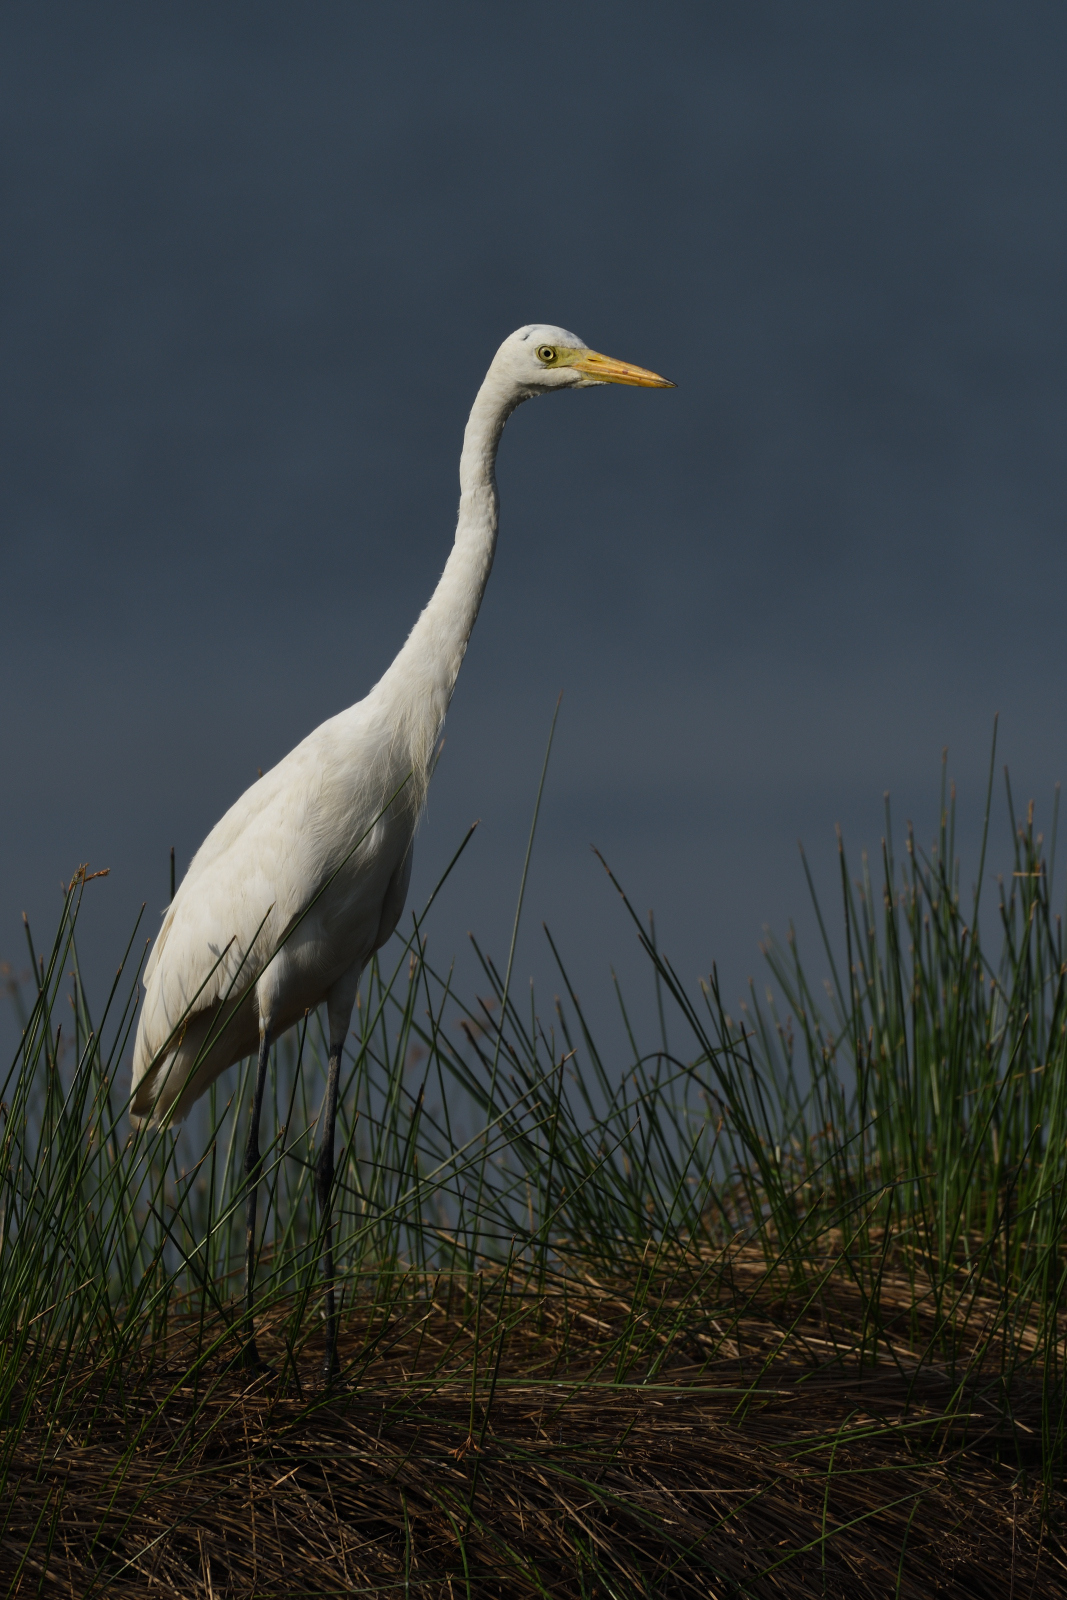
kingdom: Animalia
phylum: Chordata
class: Aves
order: Pelecaniformes
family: Ardeidae
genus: Egretta
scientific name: Egretta intermedia
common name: Intermediate egret
